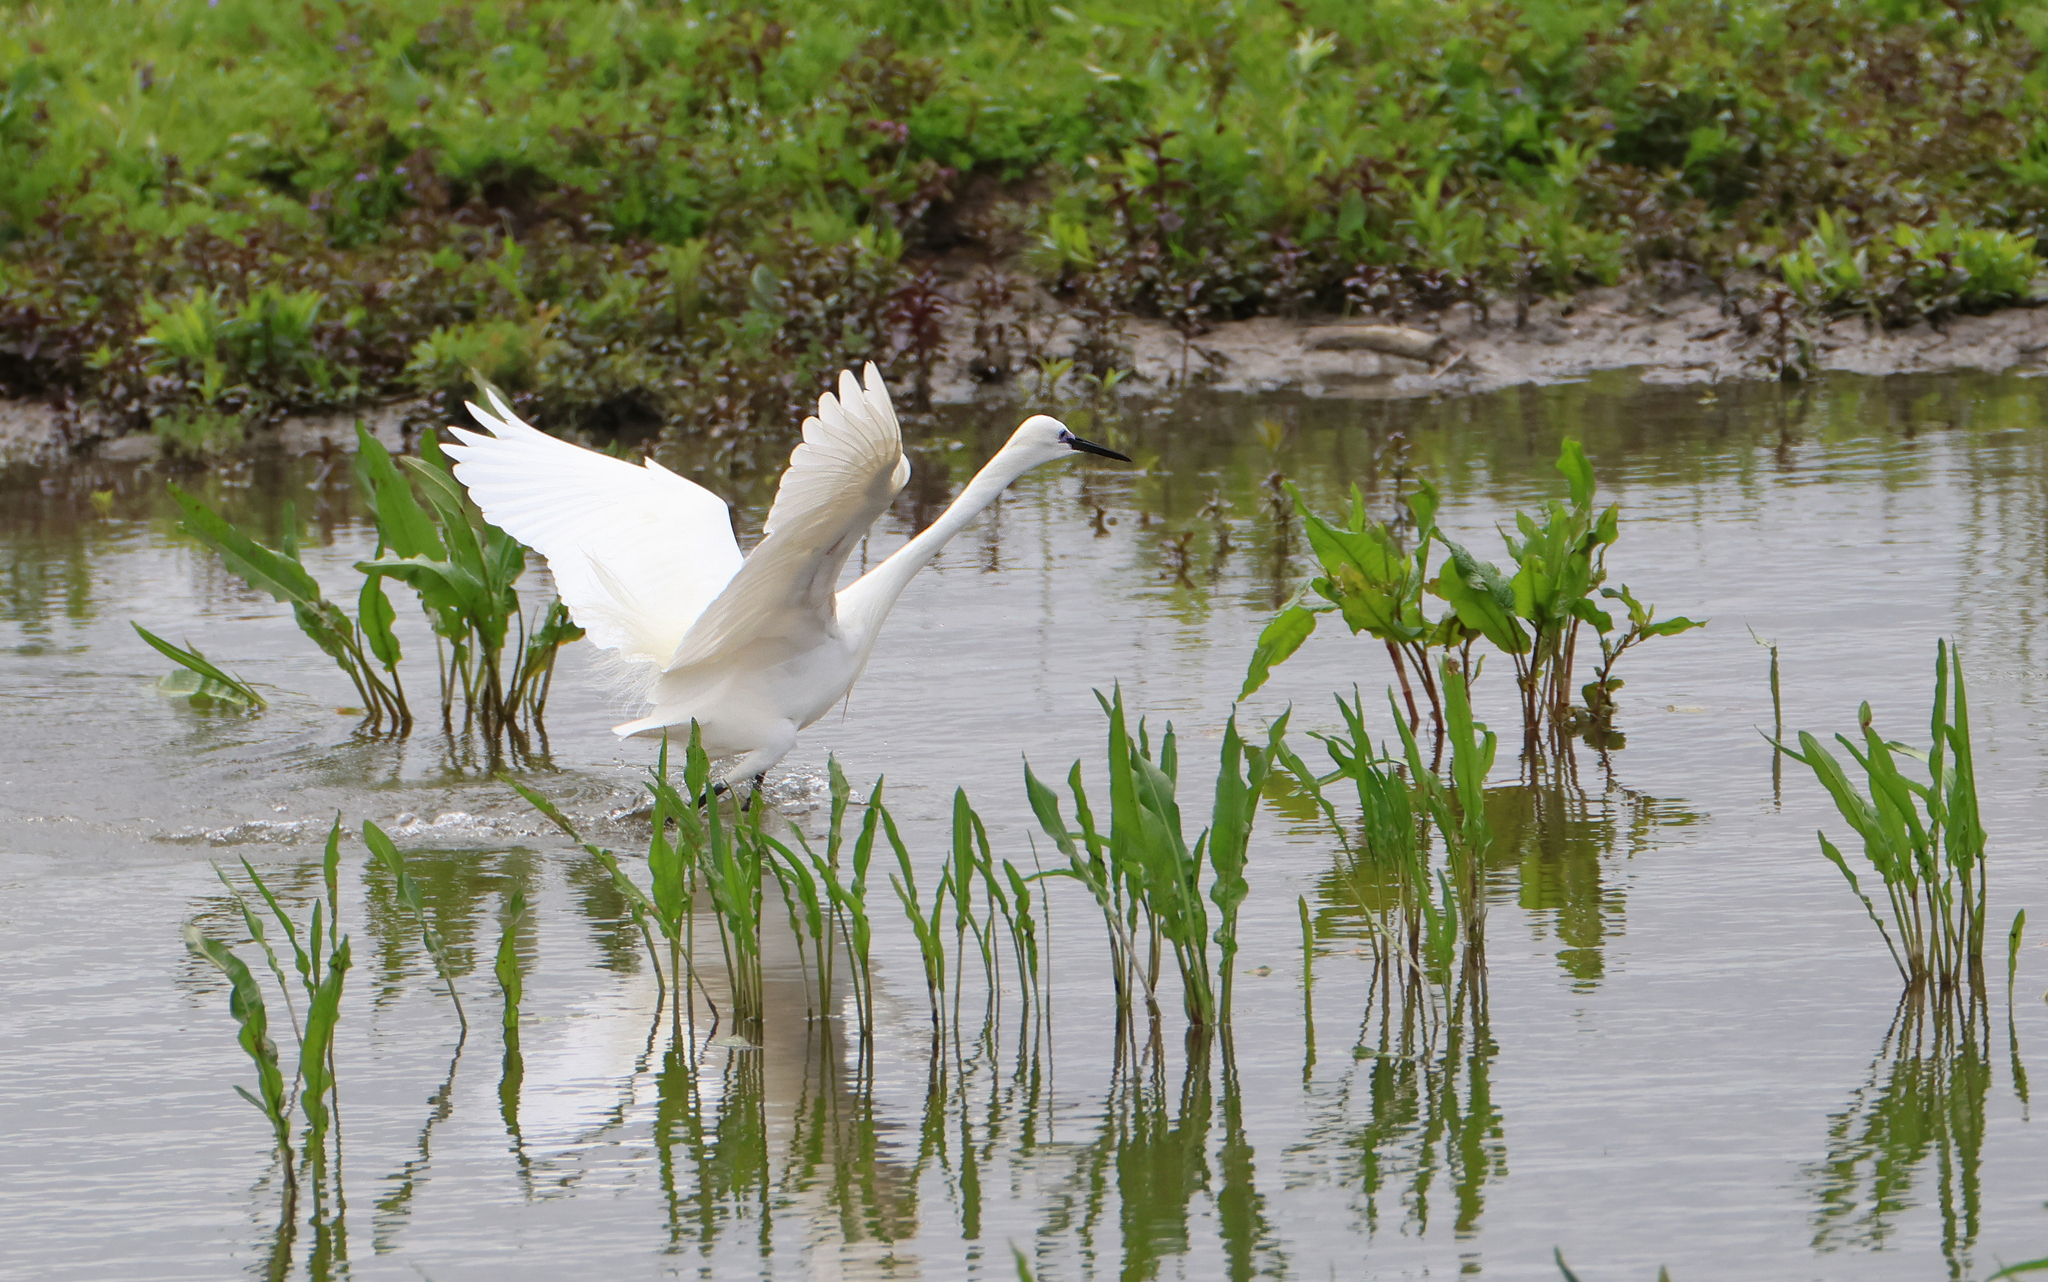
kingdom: Animalia
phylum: Chordata
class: Aves
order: Pelecaniformes
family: Ardeidae
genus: Egretta
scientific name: Egretta garzetta
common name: Little egret
